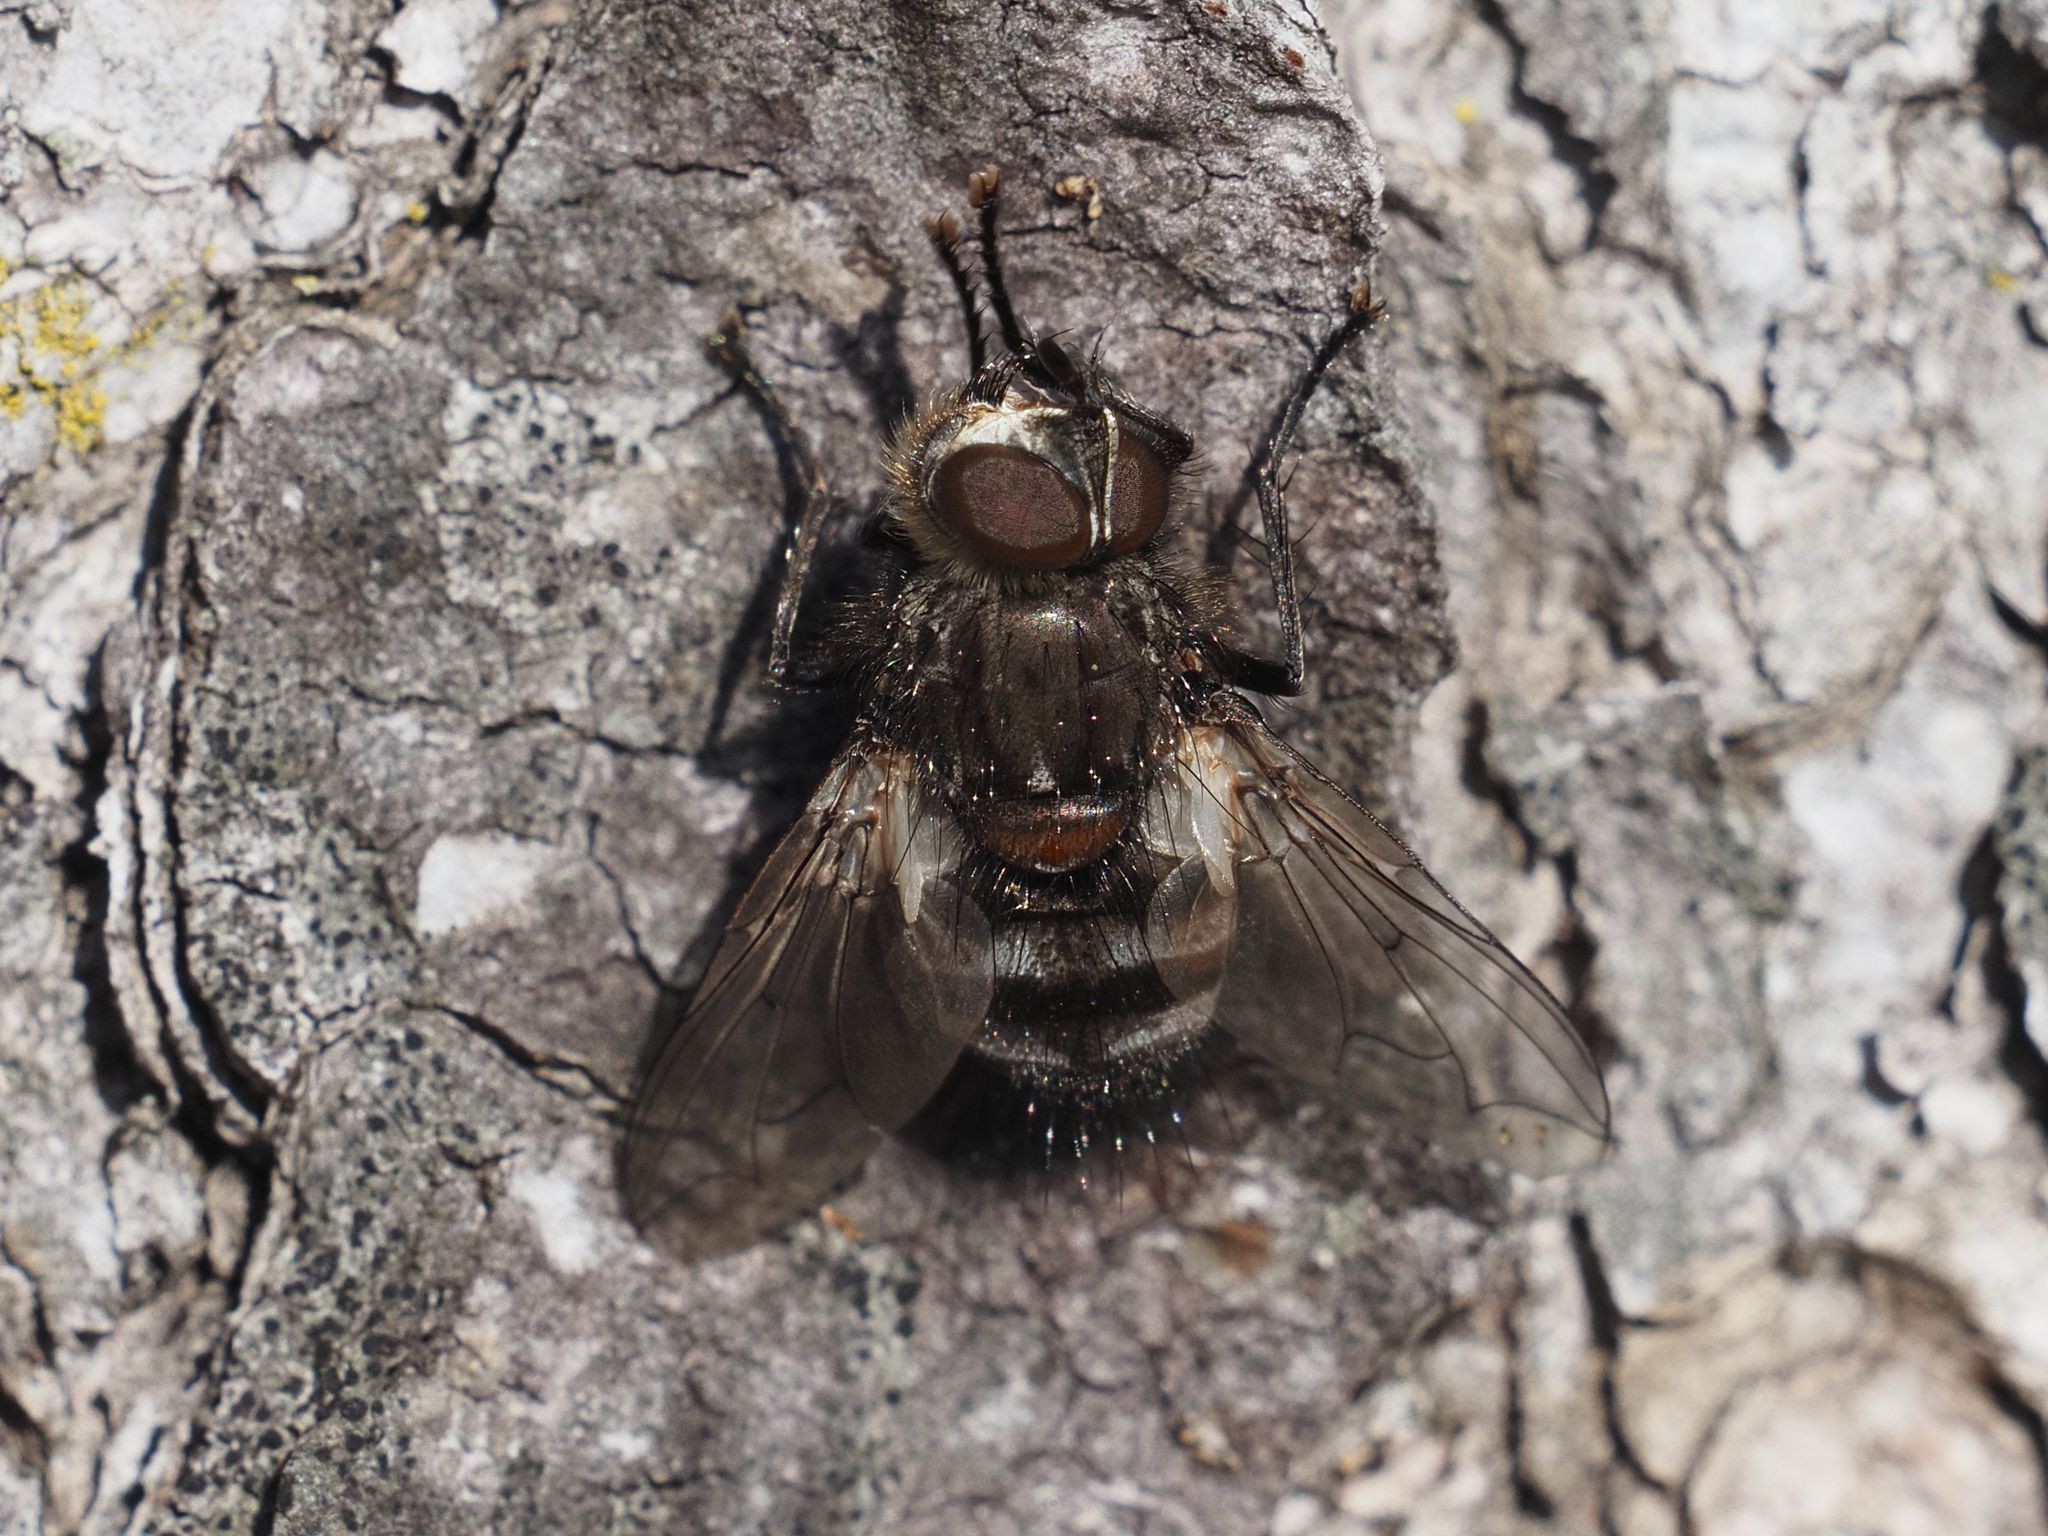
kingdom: Animalia
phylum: Arthropoda
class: Insecta
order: Diptera
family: Tachinidae
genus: Panzeria
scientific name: Panzeria puparum
